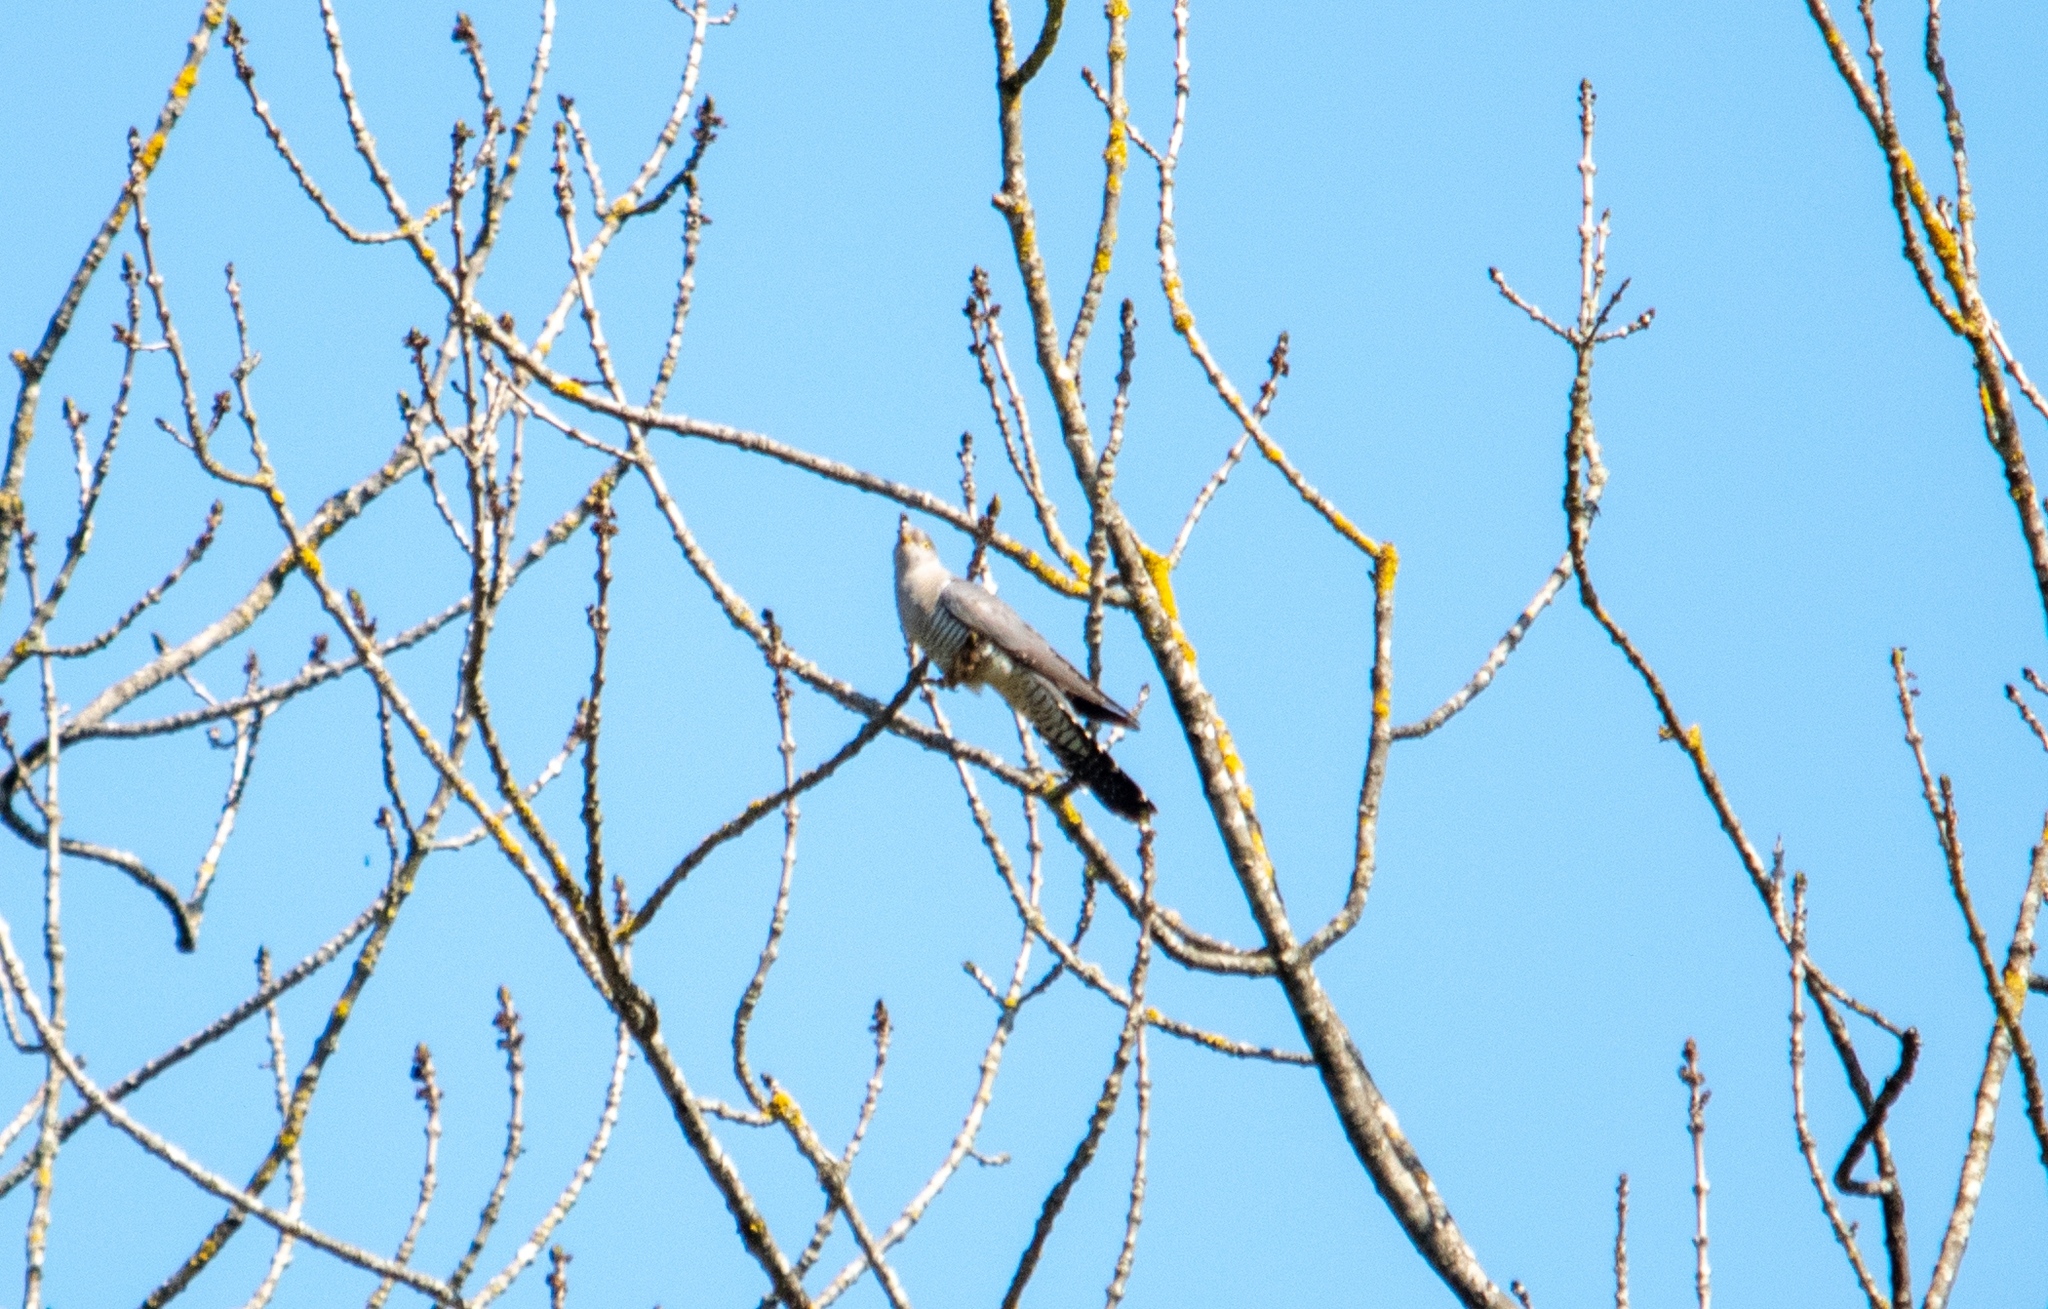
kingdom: Animalia
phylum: Chordata
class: Aves
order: Cuculiformes
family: Cuculidae
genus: Cuculus
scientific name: Cuculus canorus
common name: Common cuckoo
